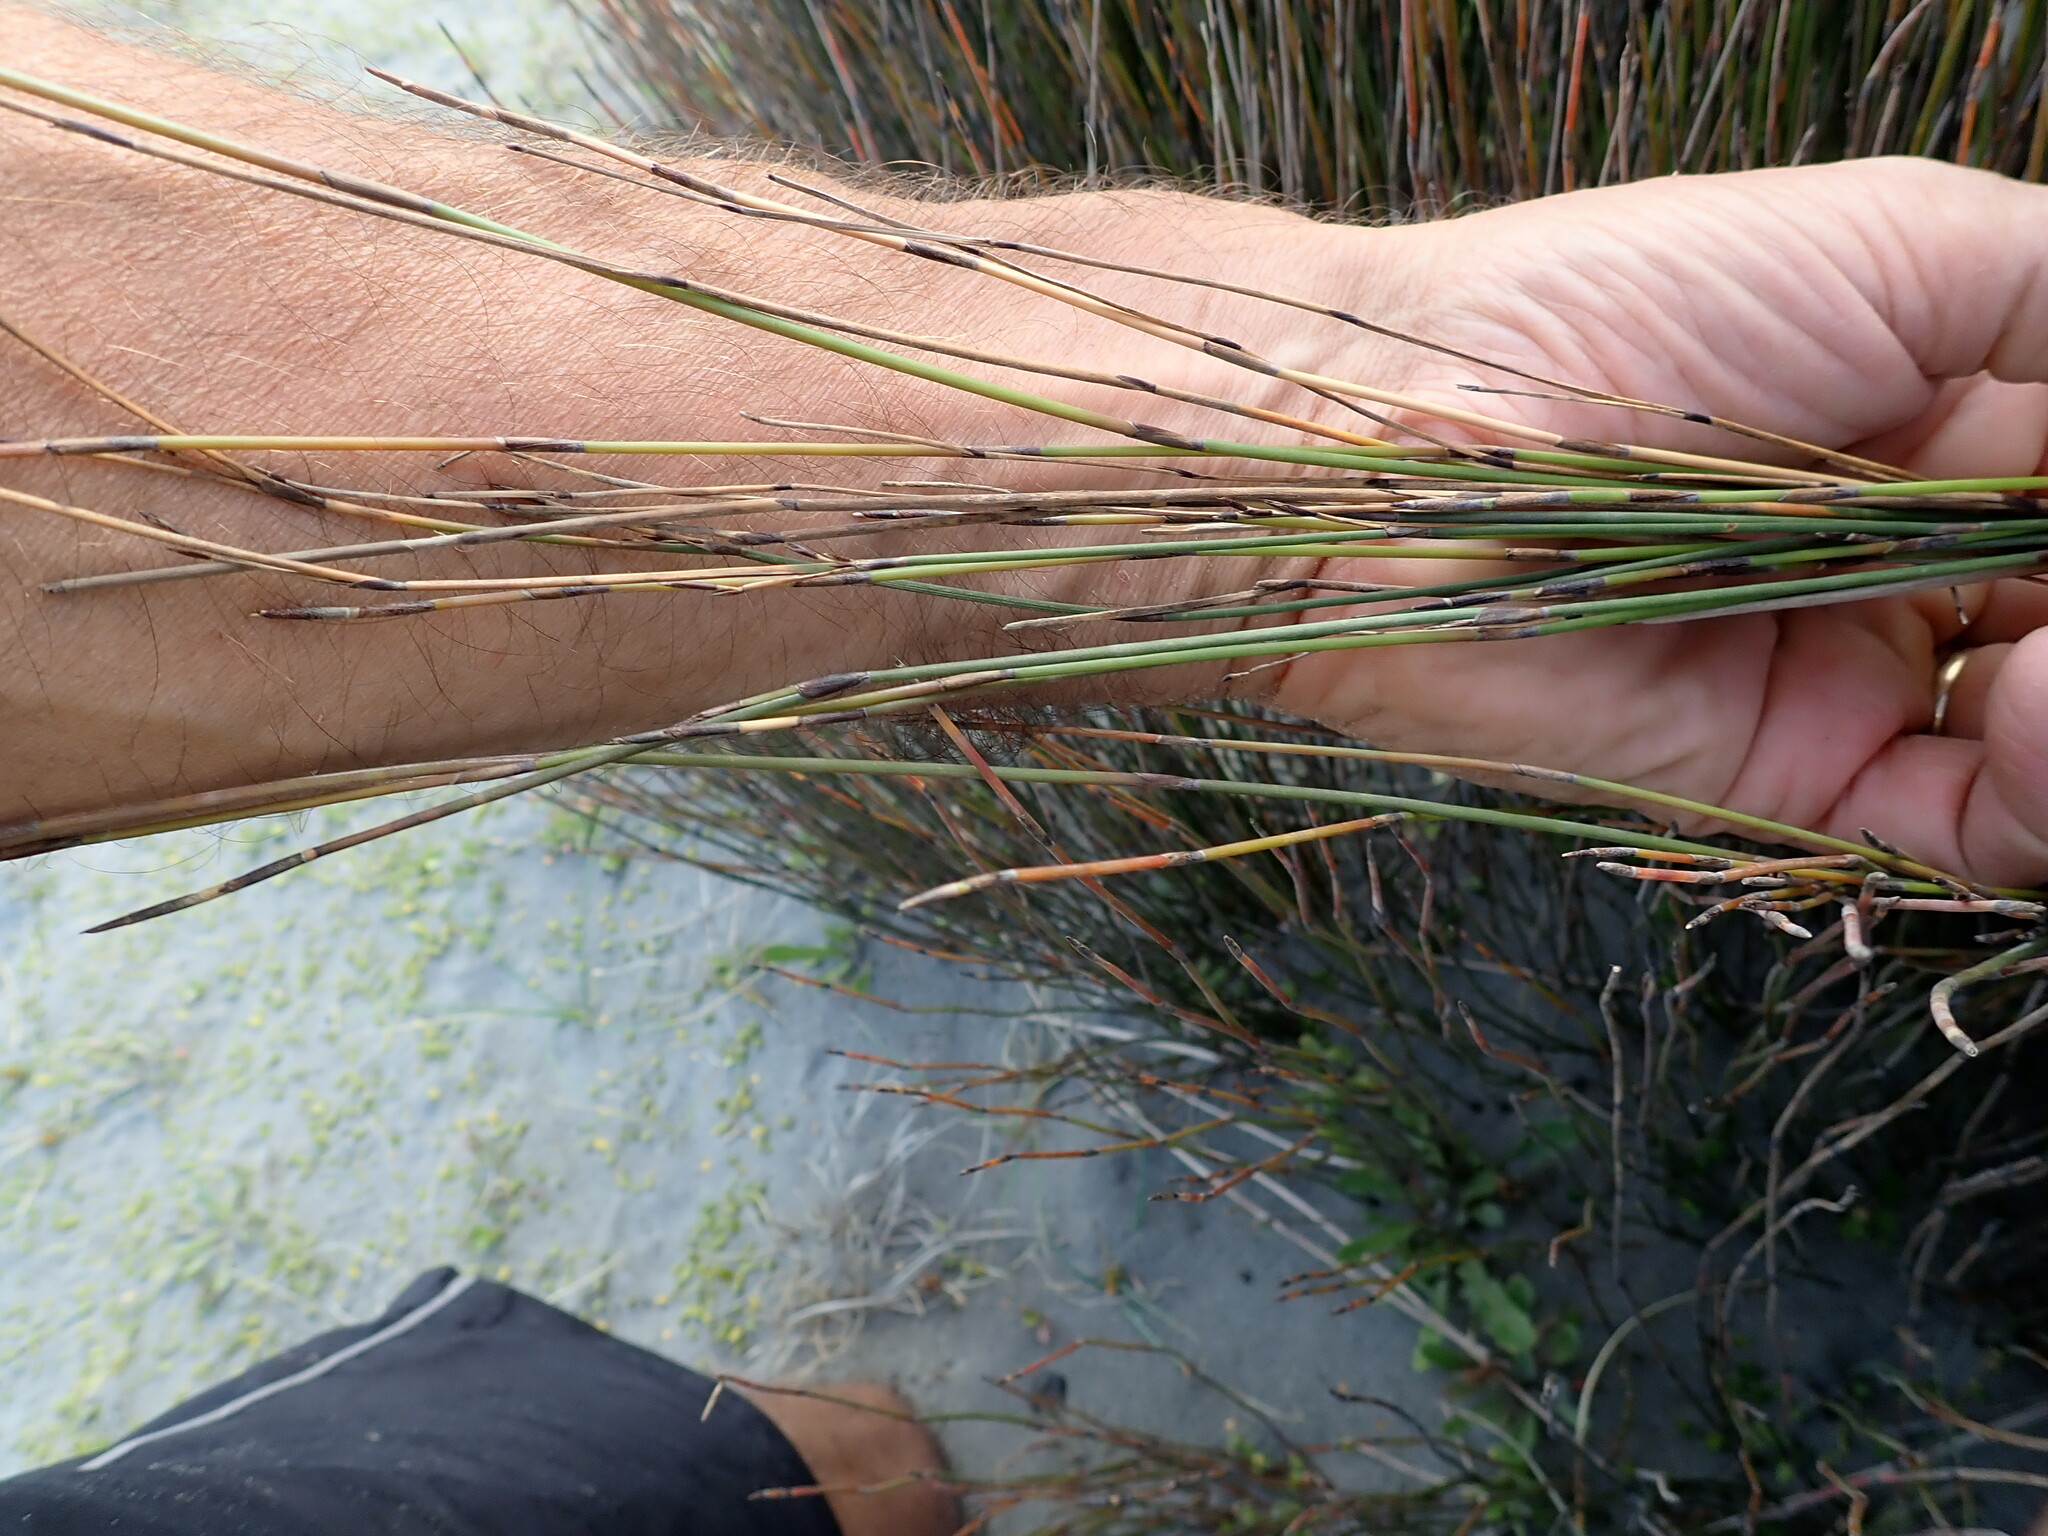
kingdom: Plantae
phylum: Tracheophyta
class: Liliopsida
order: Poales
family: Restionaceae
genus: Apodasmia
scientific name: Apodasmia similis
